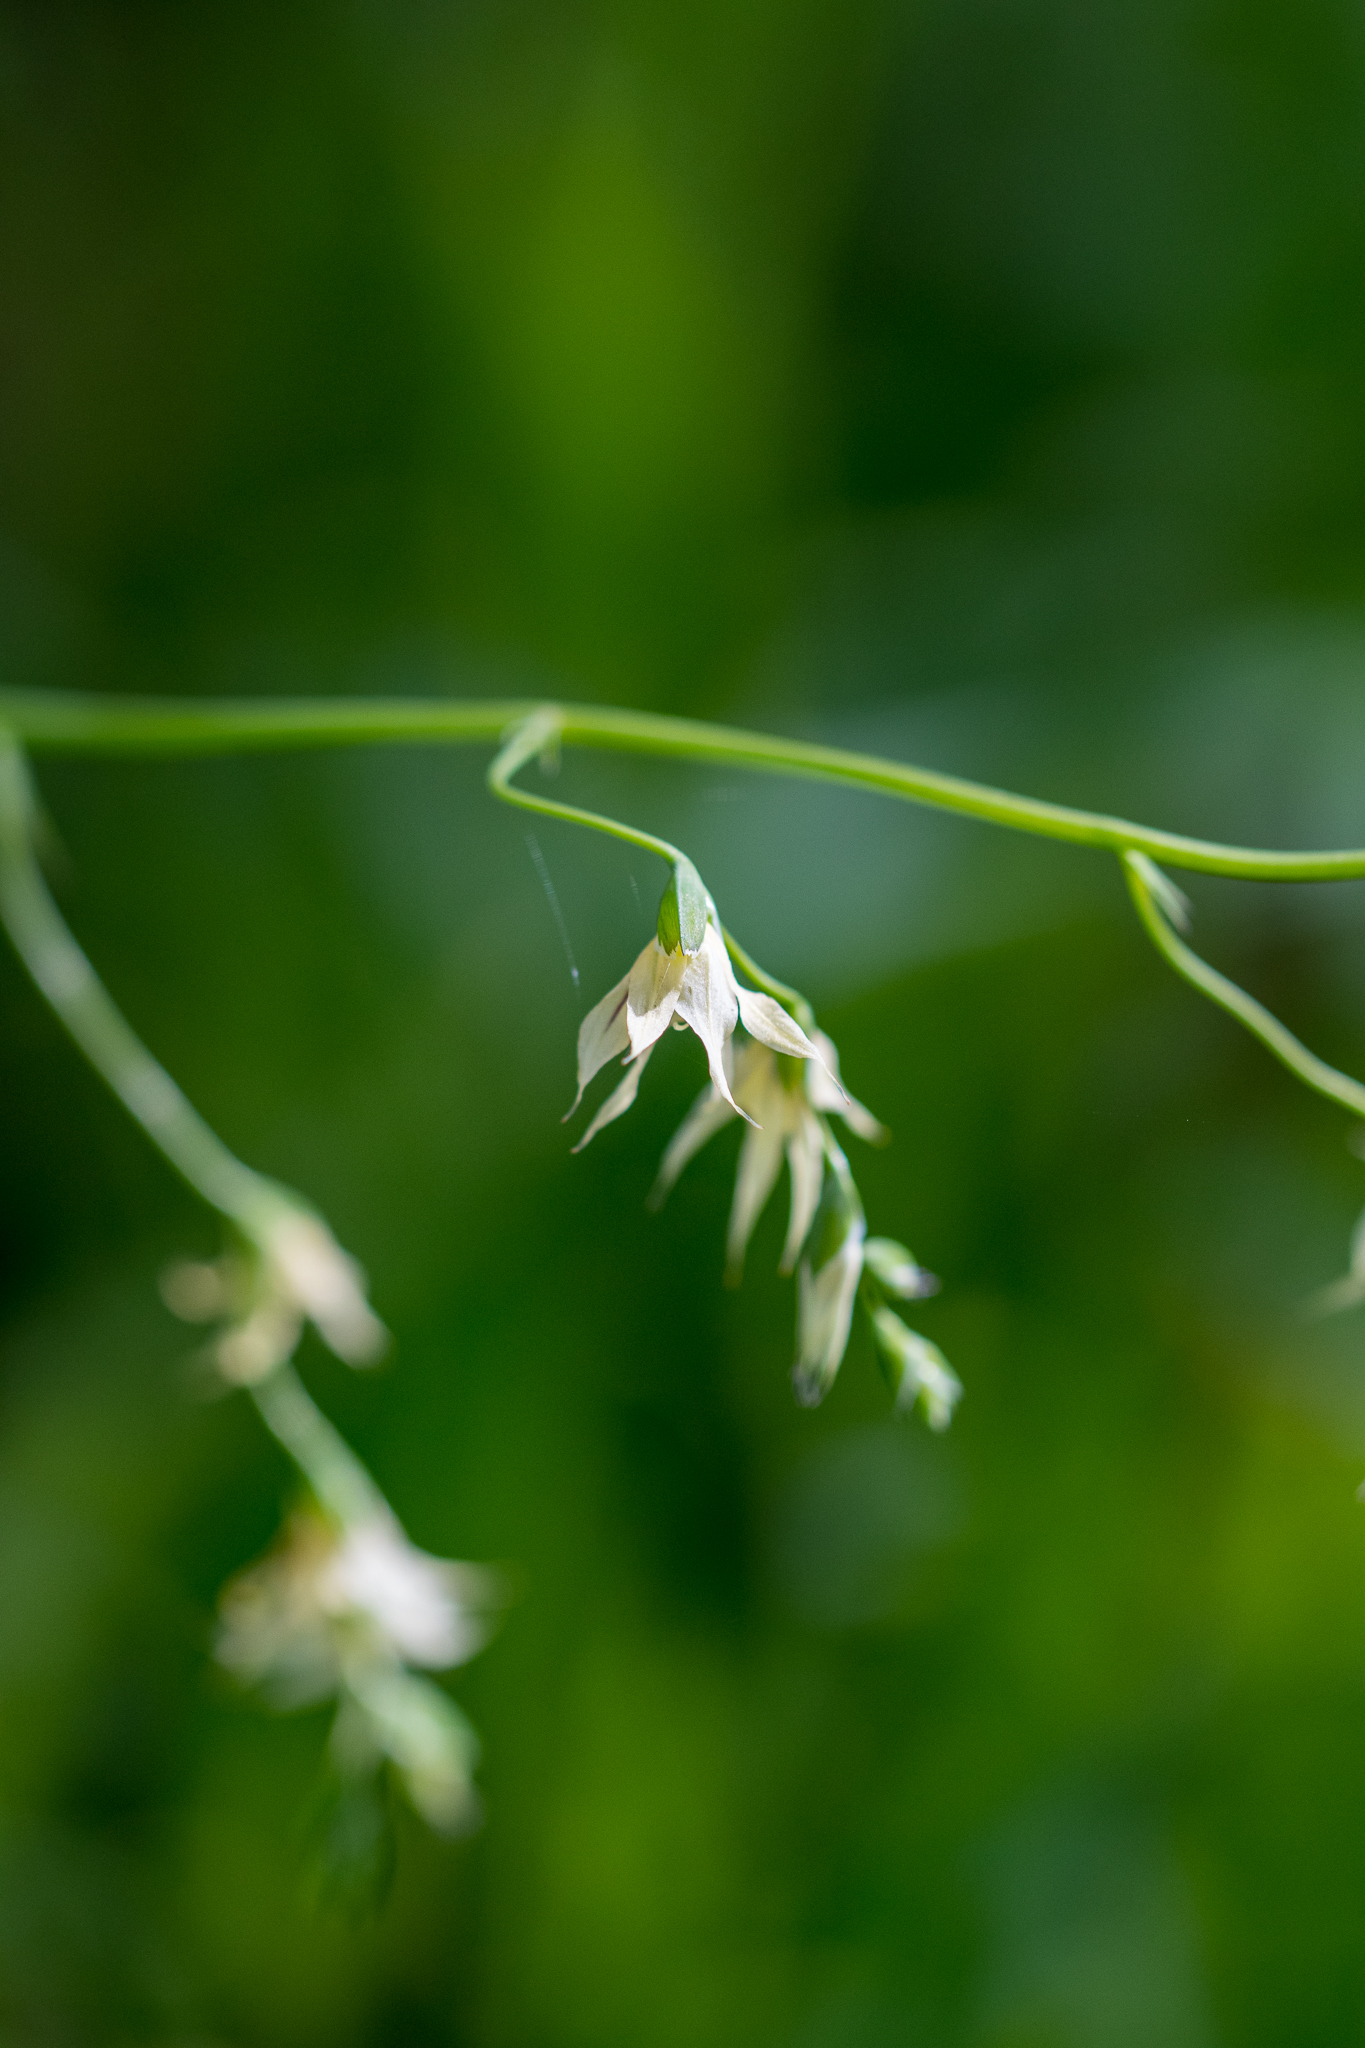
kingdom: Plantae
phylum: Tracheophyta
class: Liliopsida
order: Asparagales
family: Iridaceae
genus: Melasphaerula
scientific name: Melasphaerula graminea
